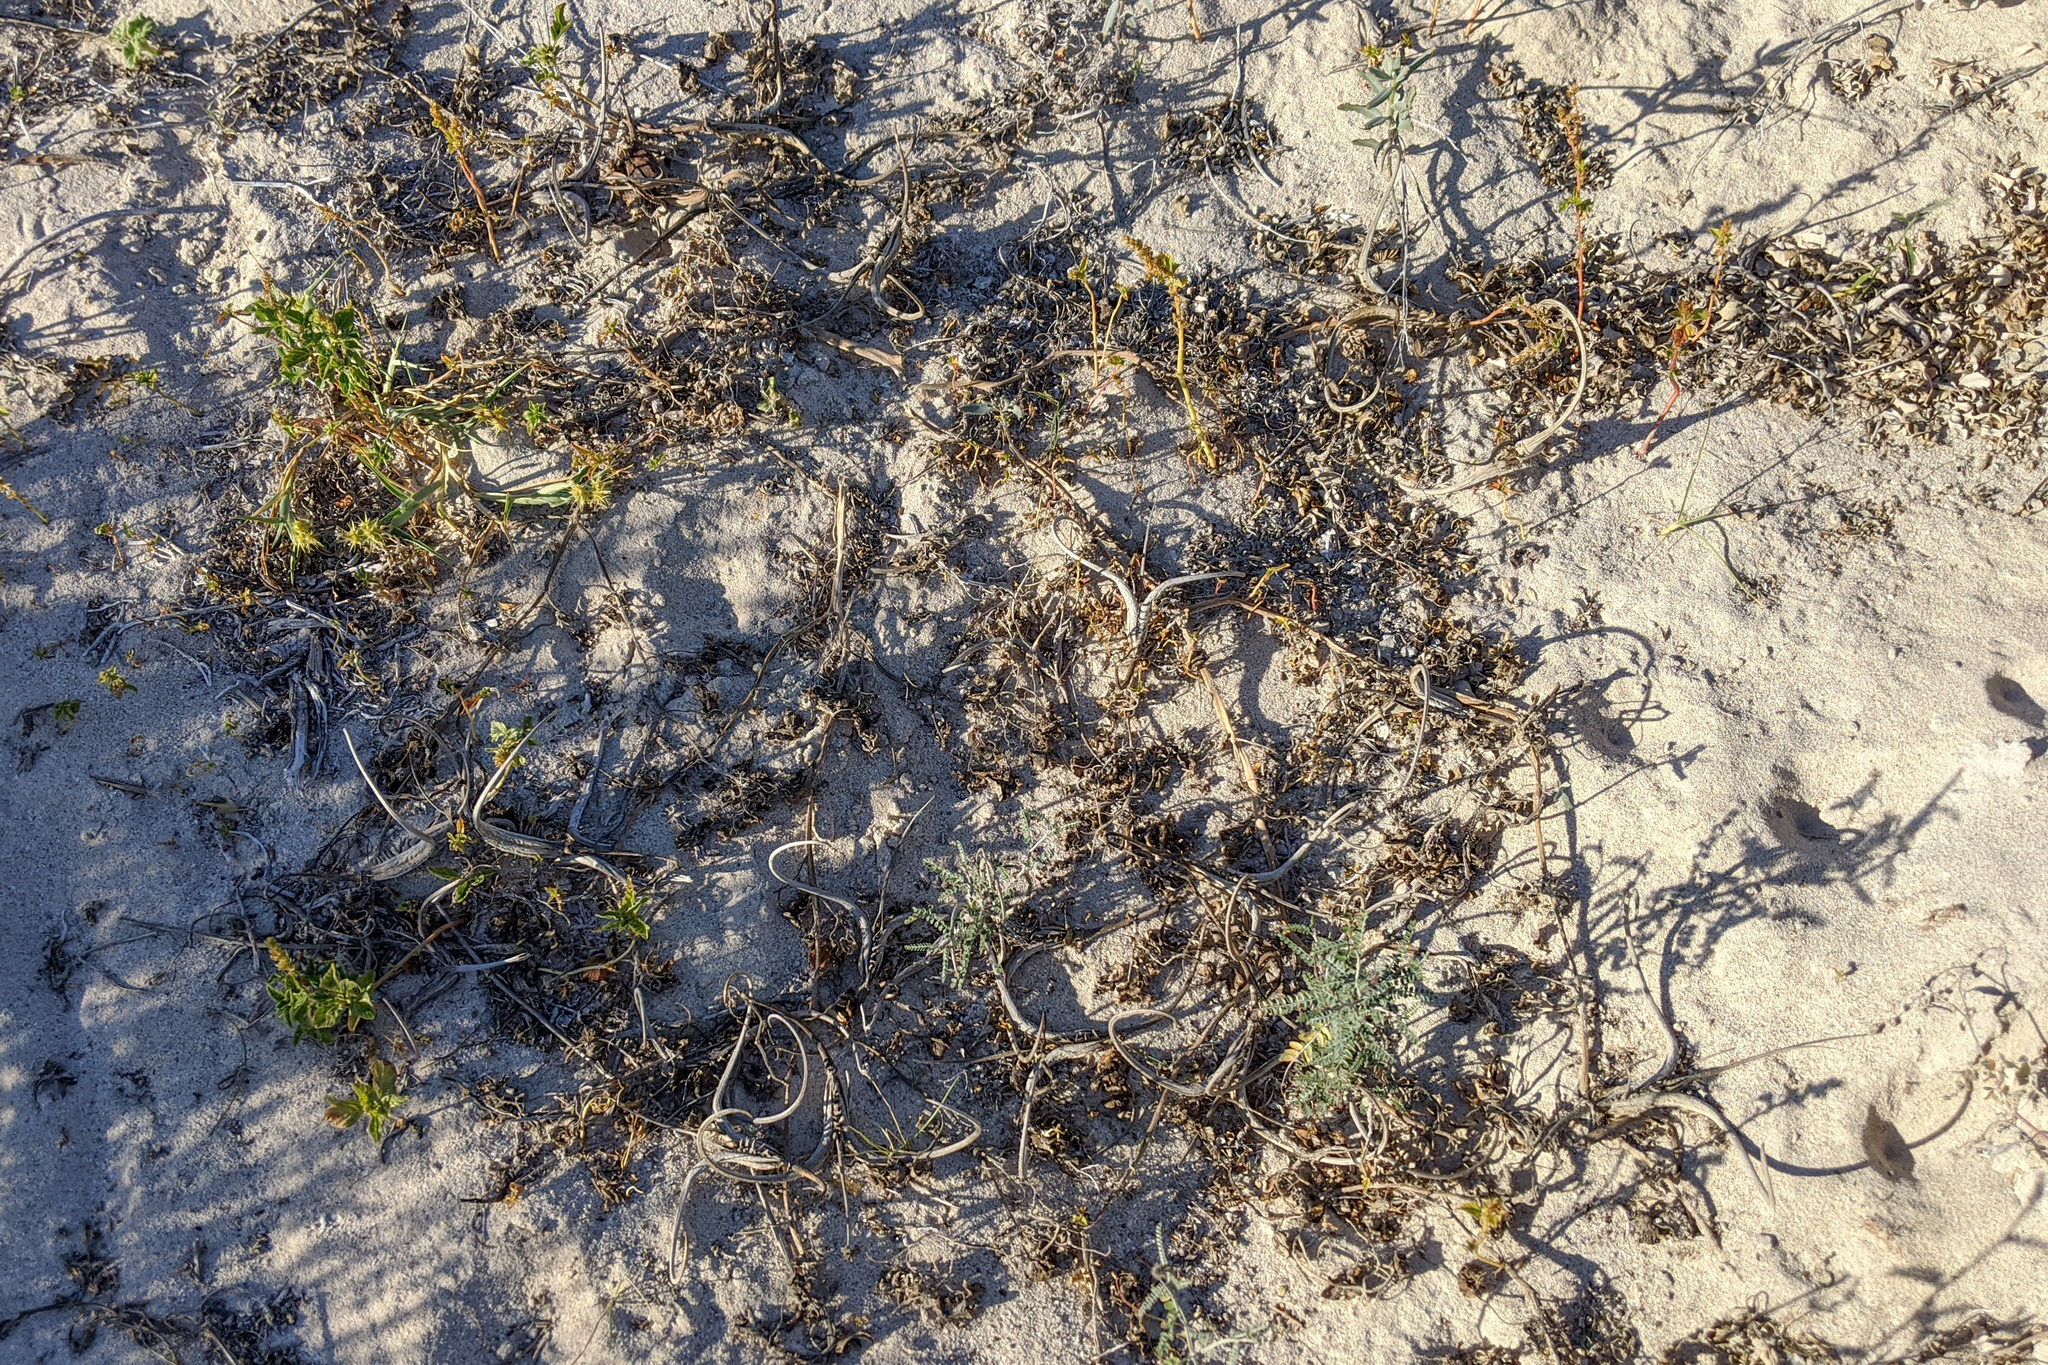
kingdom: Plantae
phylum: Tracheophyta
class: Magnoliopsida
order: Lamiales
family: Martyniaceae
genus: Proboscidea
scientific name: Proboscidea althaeifolia
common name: Desert unicorn-plant
